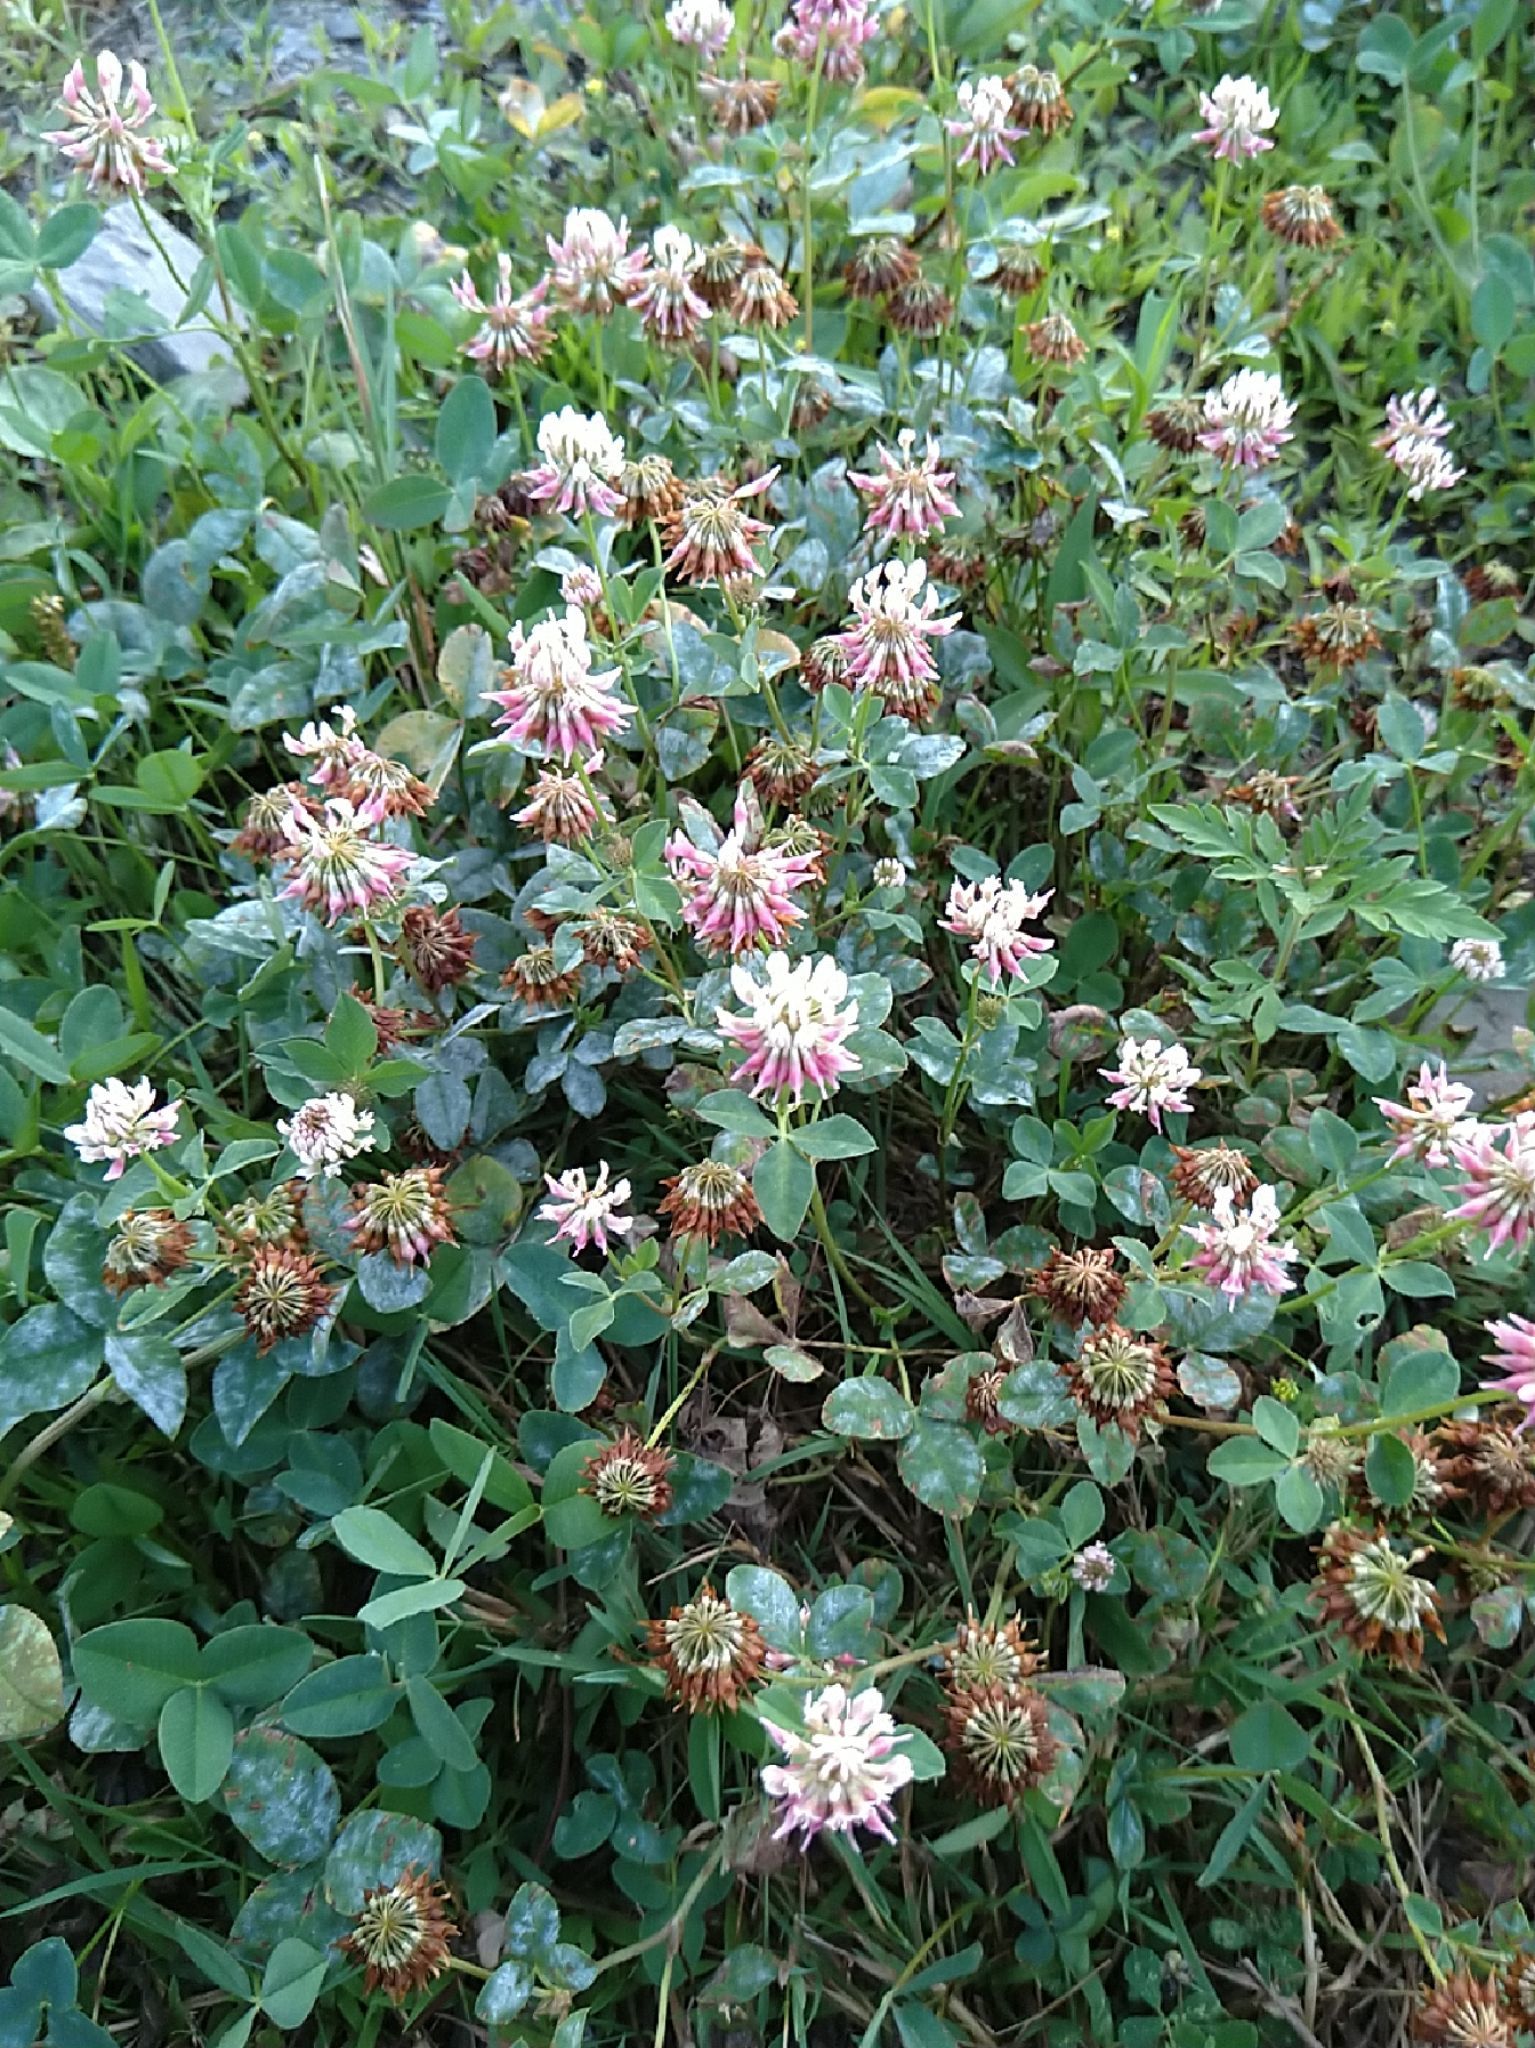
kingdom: Plantae
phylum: Tracheophyta
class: Magnoliopsida
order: Fabales
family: Fabaceae
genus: Trifolium
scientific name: Trifolium hybridum
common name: Alsike clover
